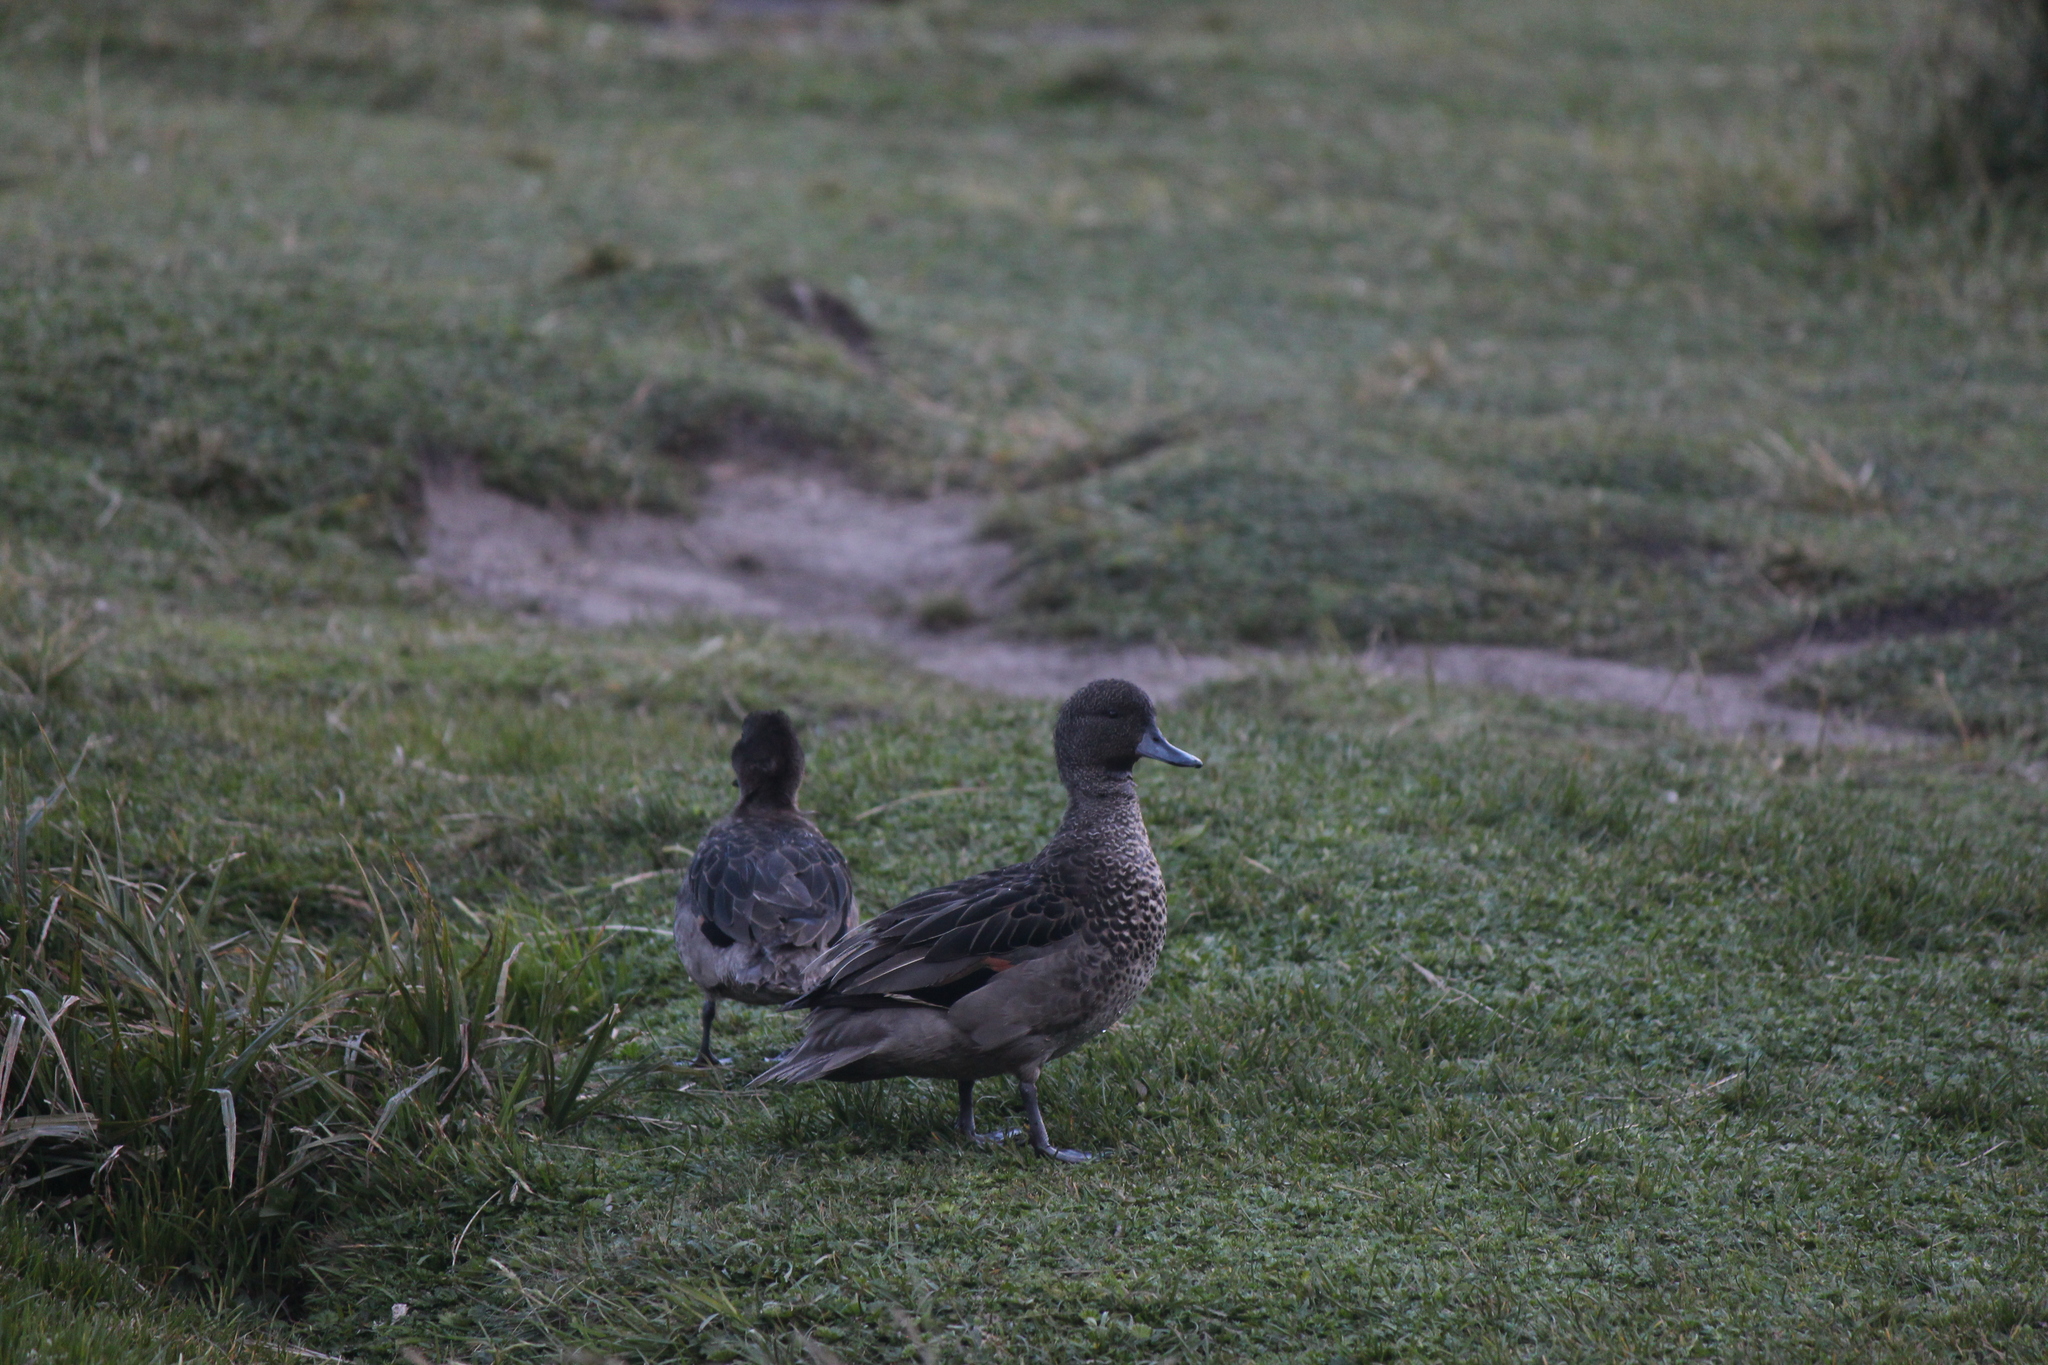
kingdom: Animalia
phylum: Chordata
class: Aves
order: Anseriformes
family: Anatidae
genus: Anas
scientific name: Anas andium
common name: Andean teal
